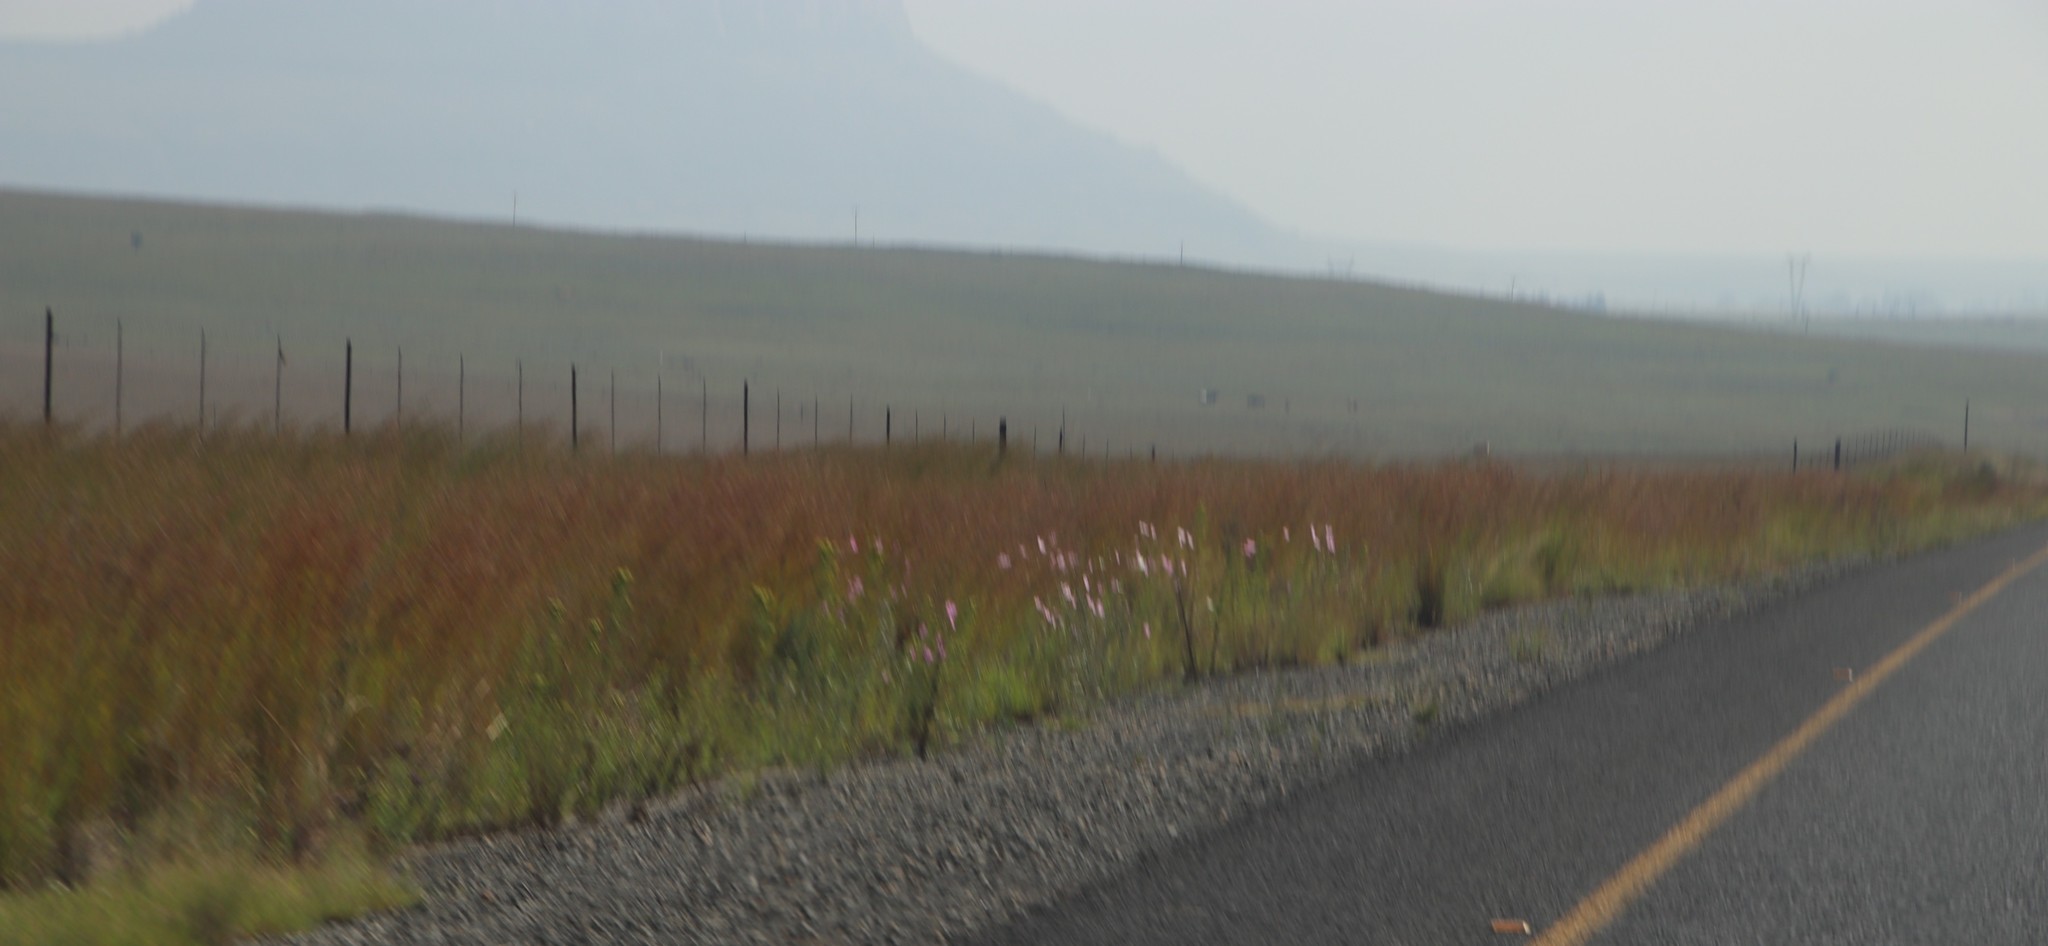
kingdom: Plantae
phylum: Tracheophyta
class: Magnoliopsida
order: Asterales
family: Asteraceae
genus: Cosmos
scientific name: Cosmos bipinnatus
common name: Garden cosmos
